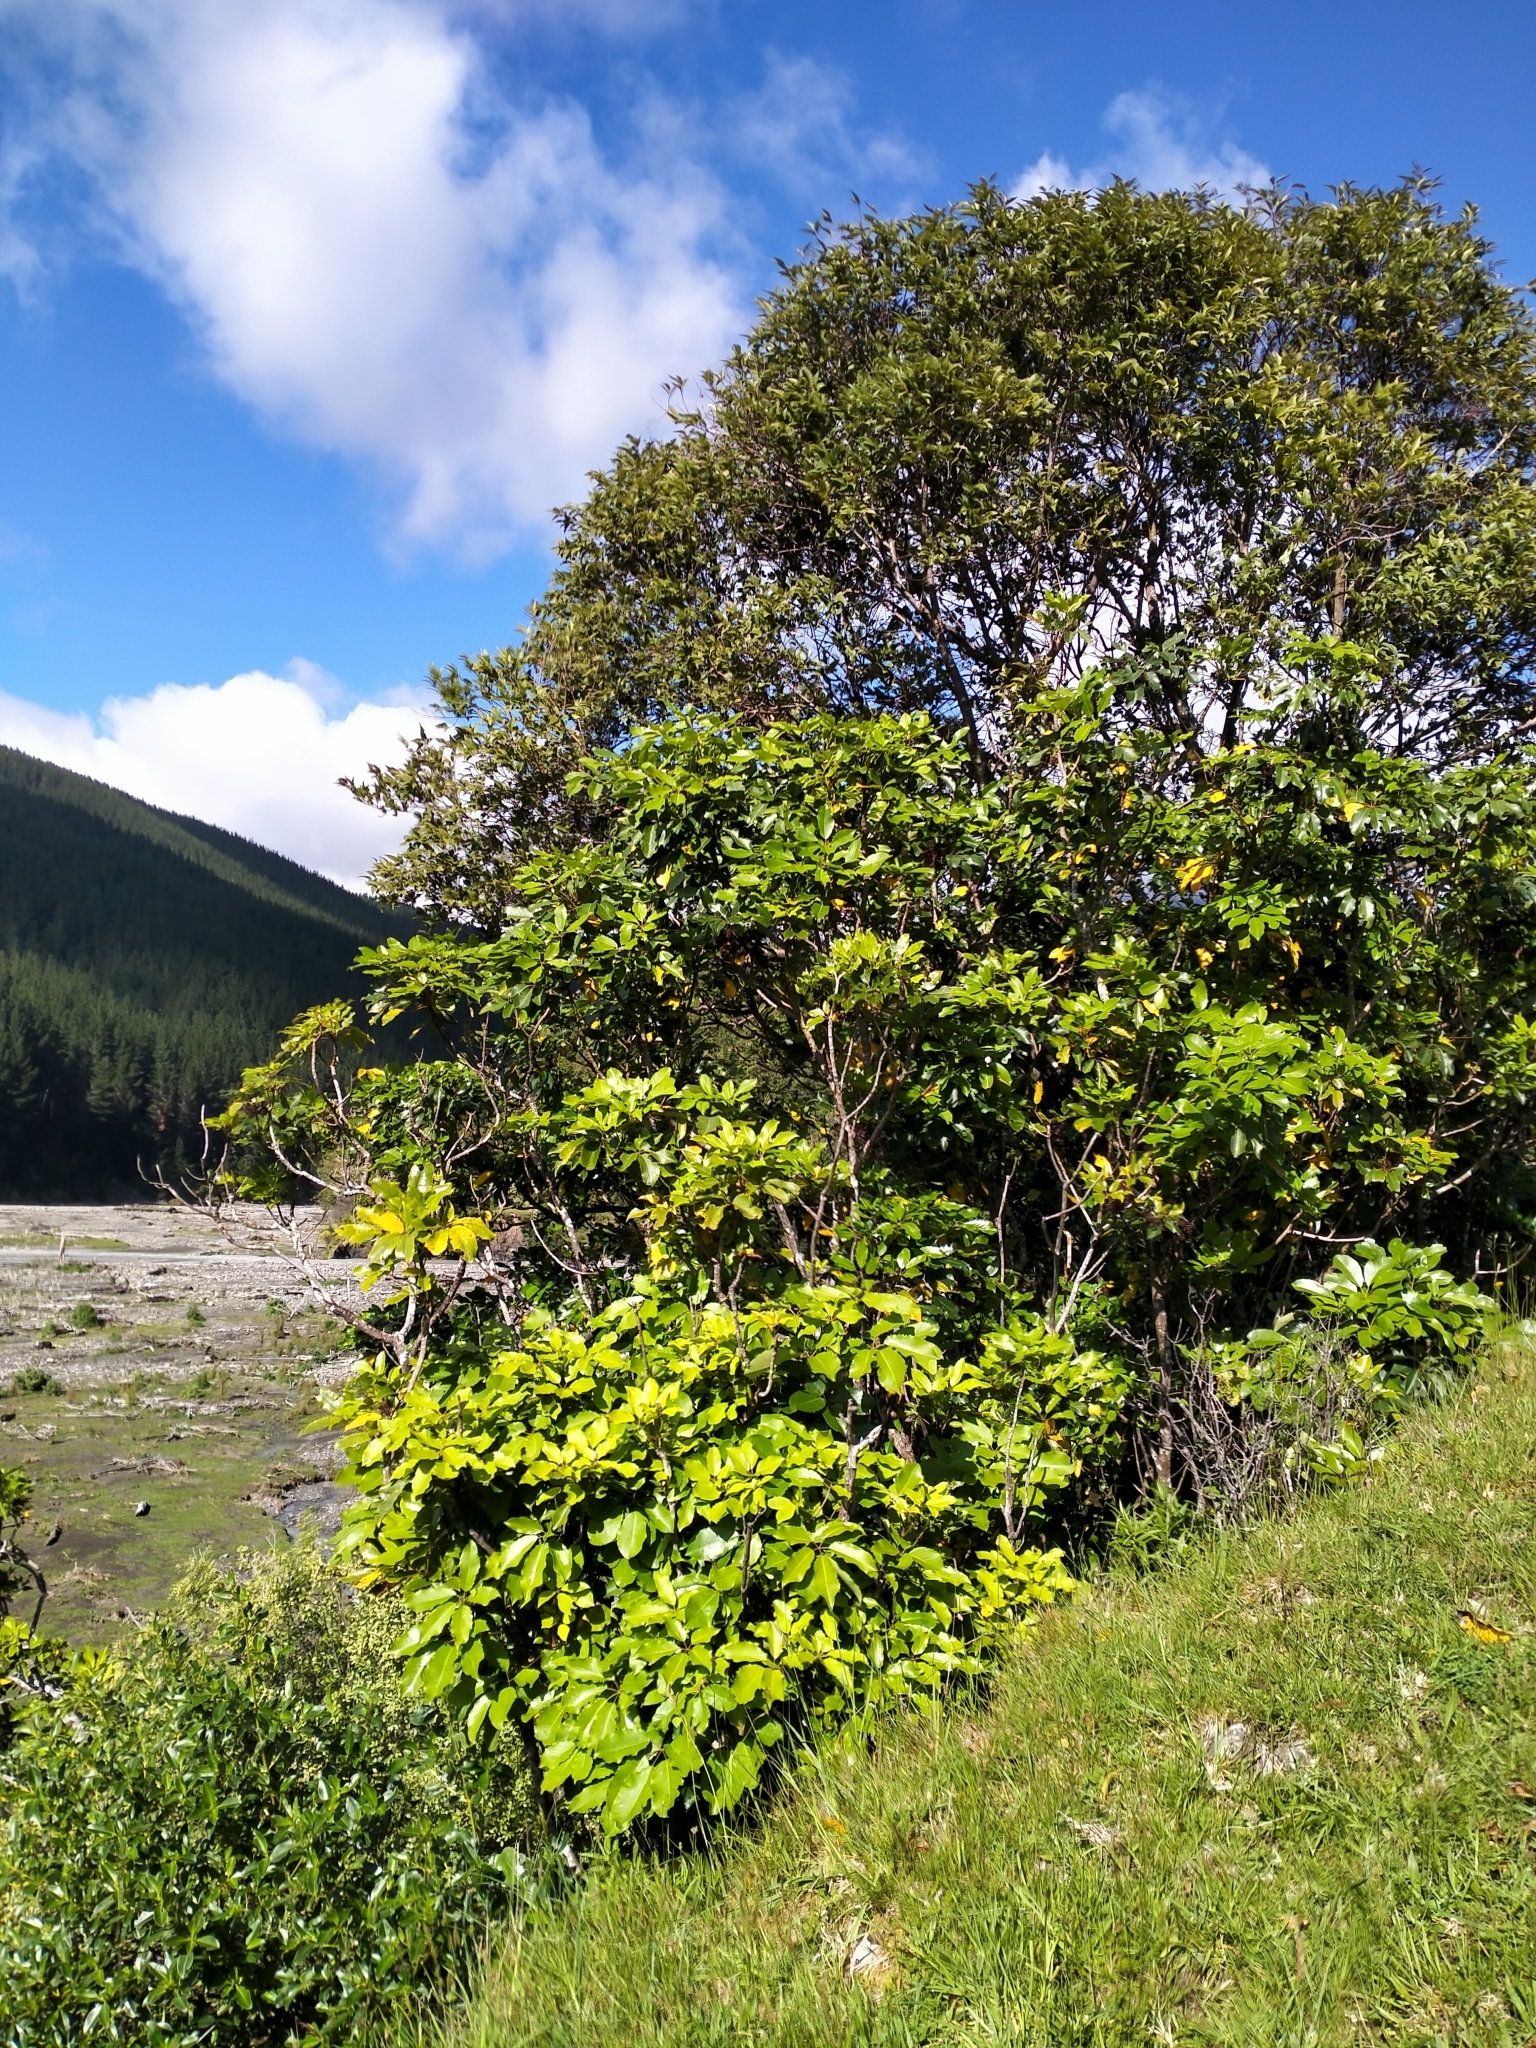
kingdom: Plantae
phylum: Tracheophyta
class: Magnoliopsida
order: Apiales
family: Araliaceae
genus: Neopanax
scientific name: Neopanax arboreus
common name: Five-fingers
